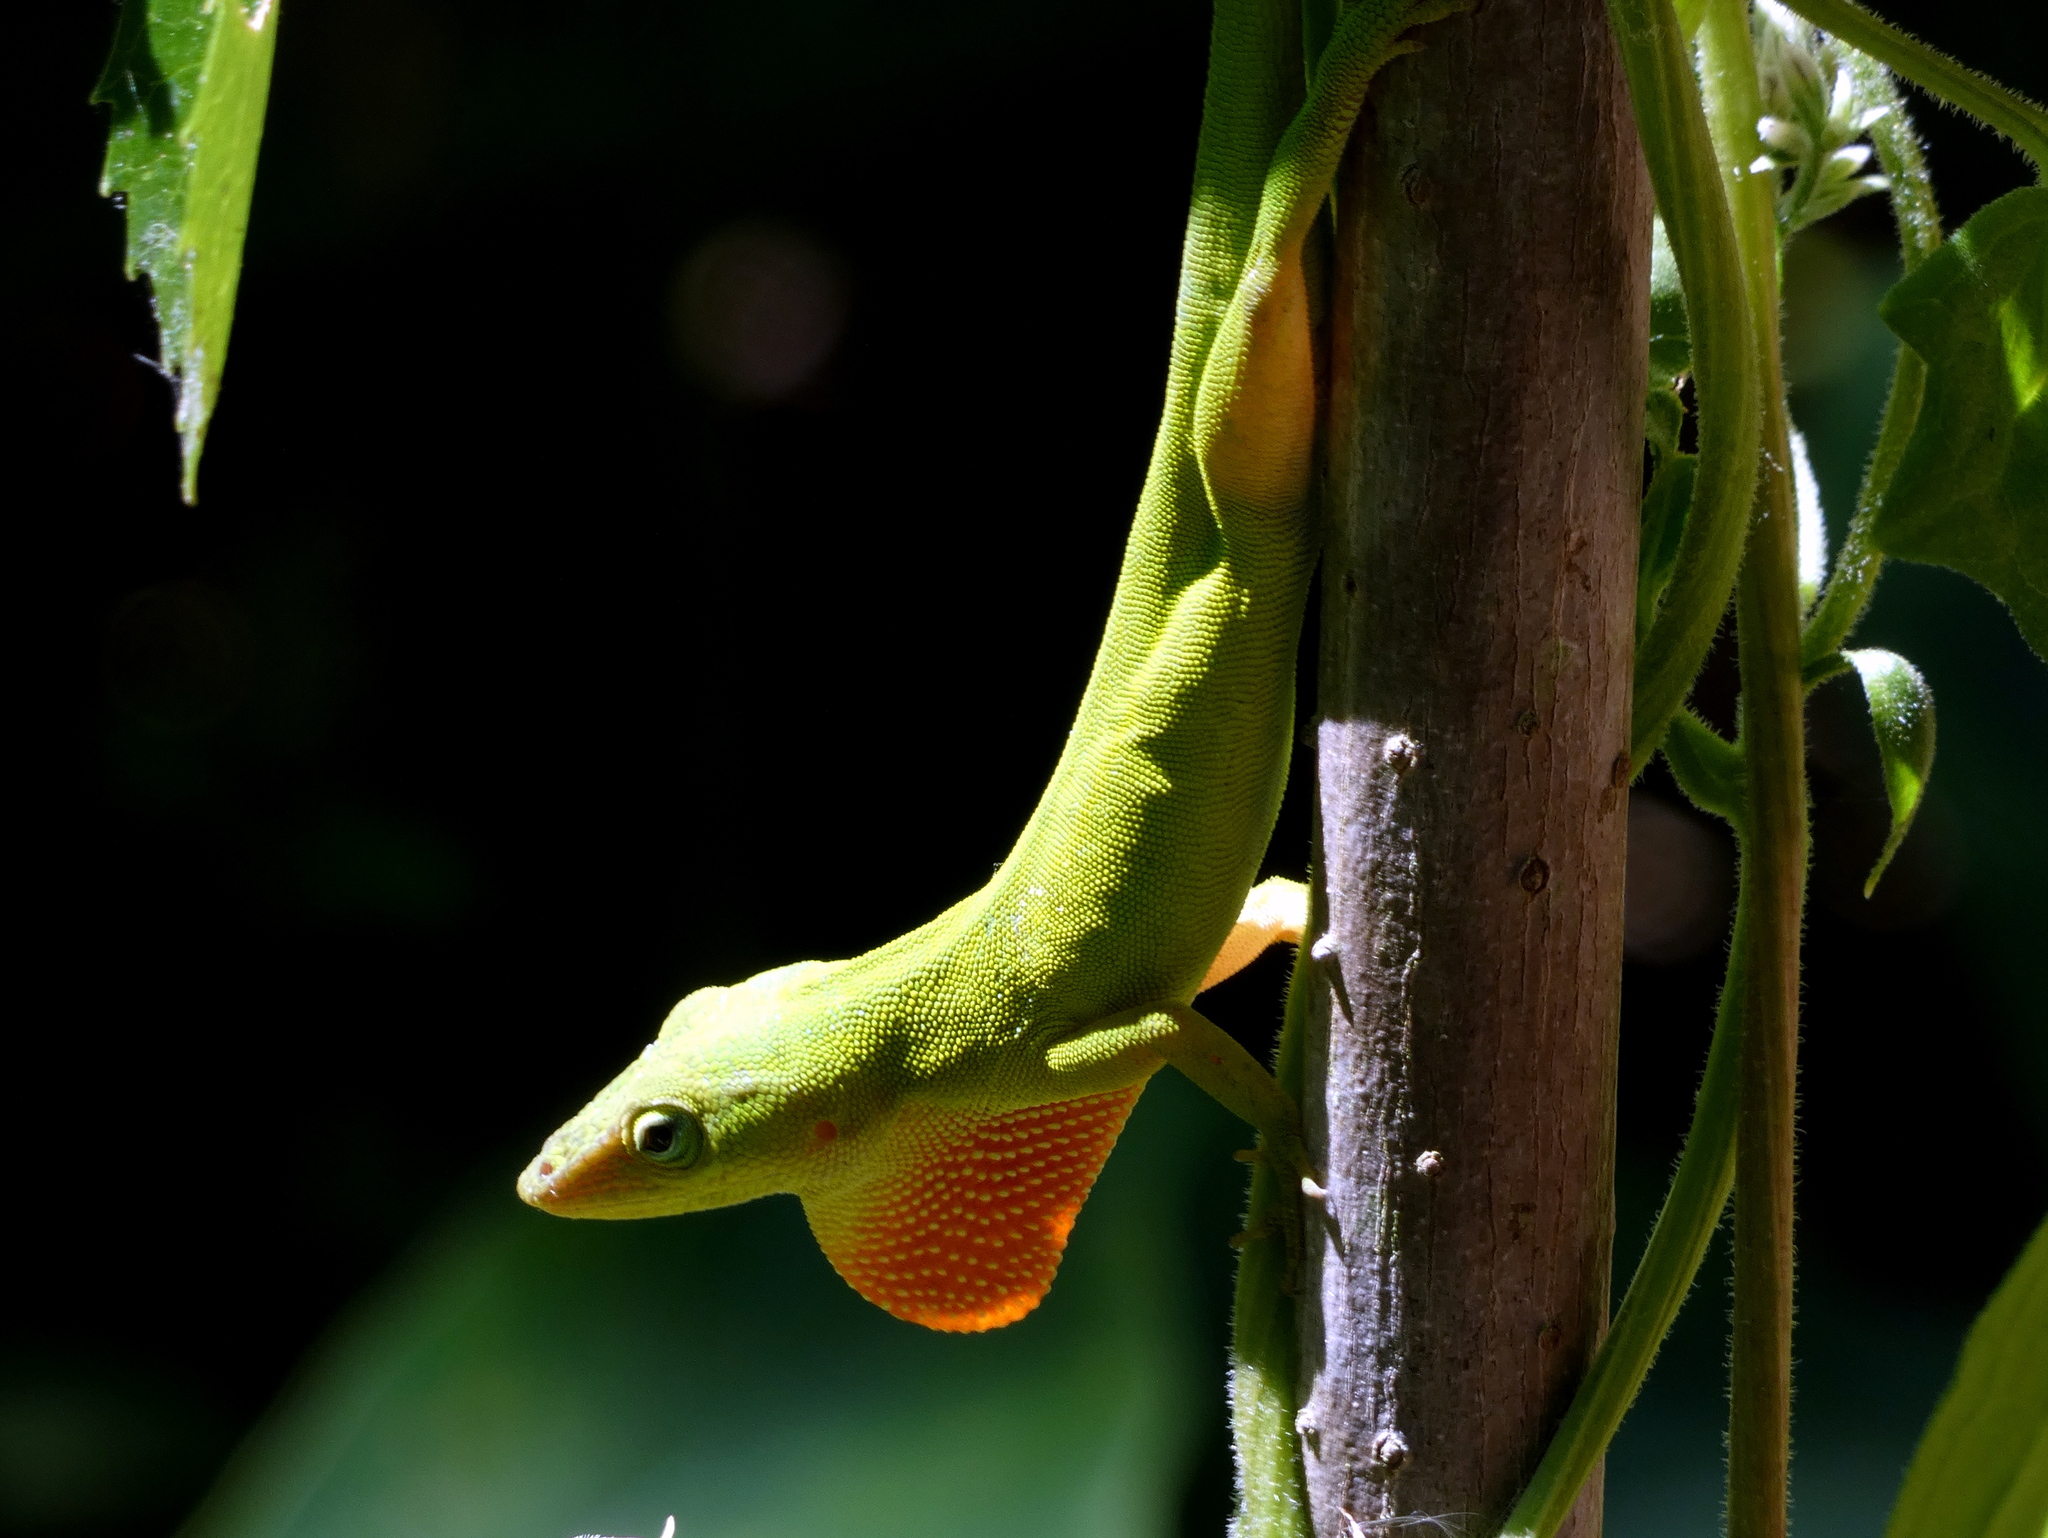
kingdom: Animalia
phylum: Chordata
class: Squamata
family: Dactyloidae
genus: Anolis
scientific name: Anolis carolinensis
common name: Green anole
